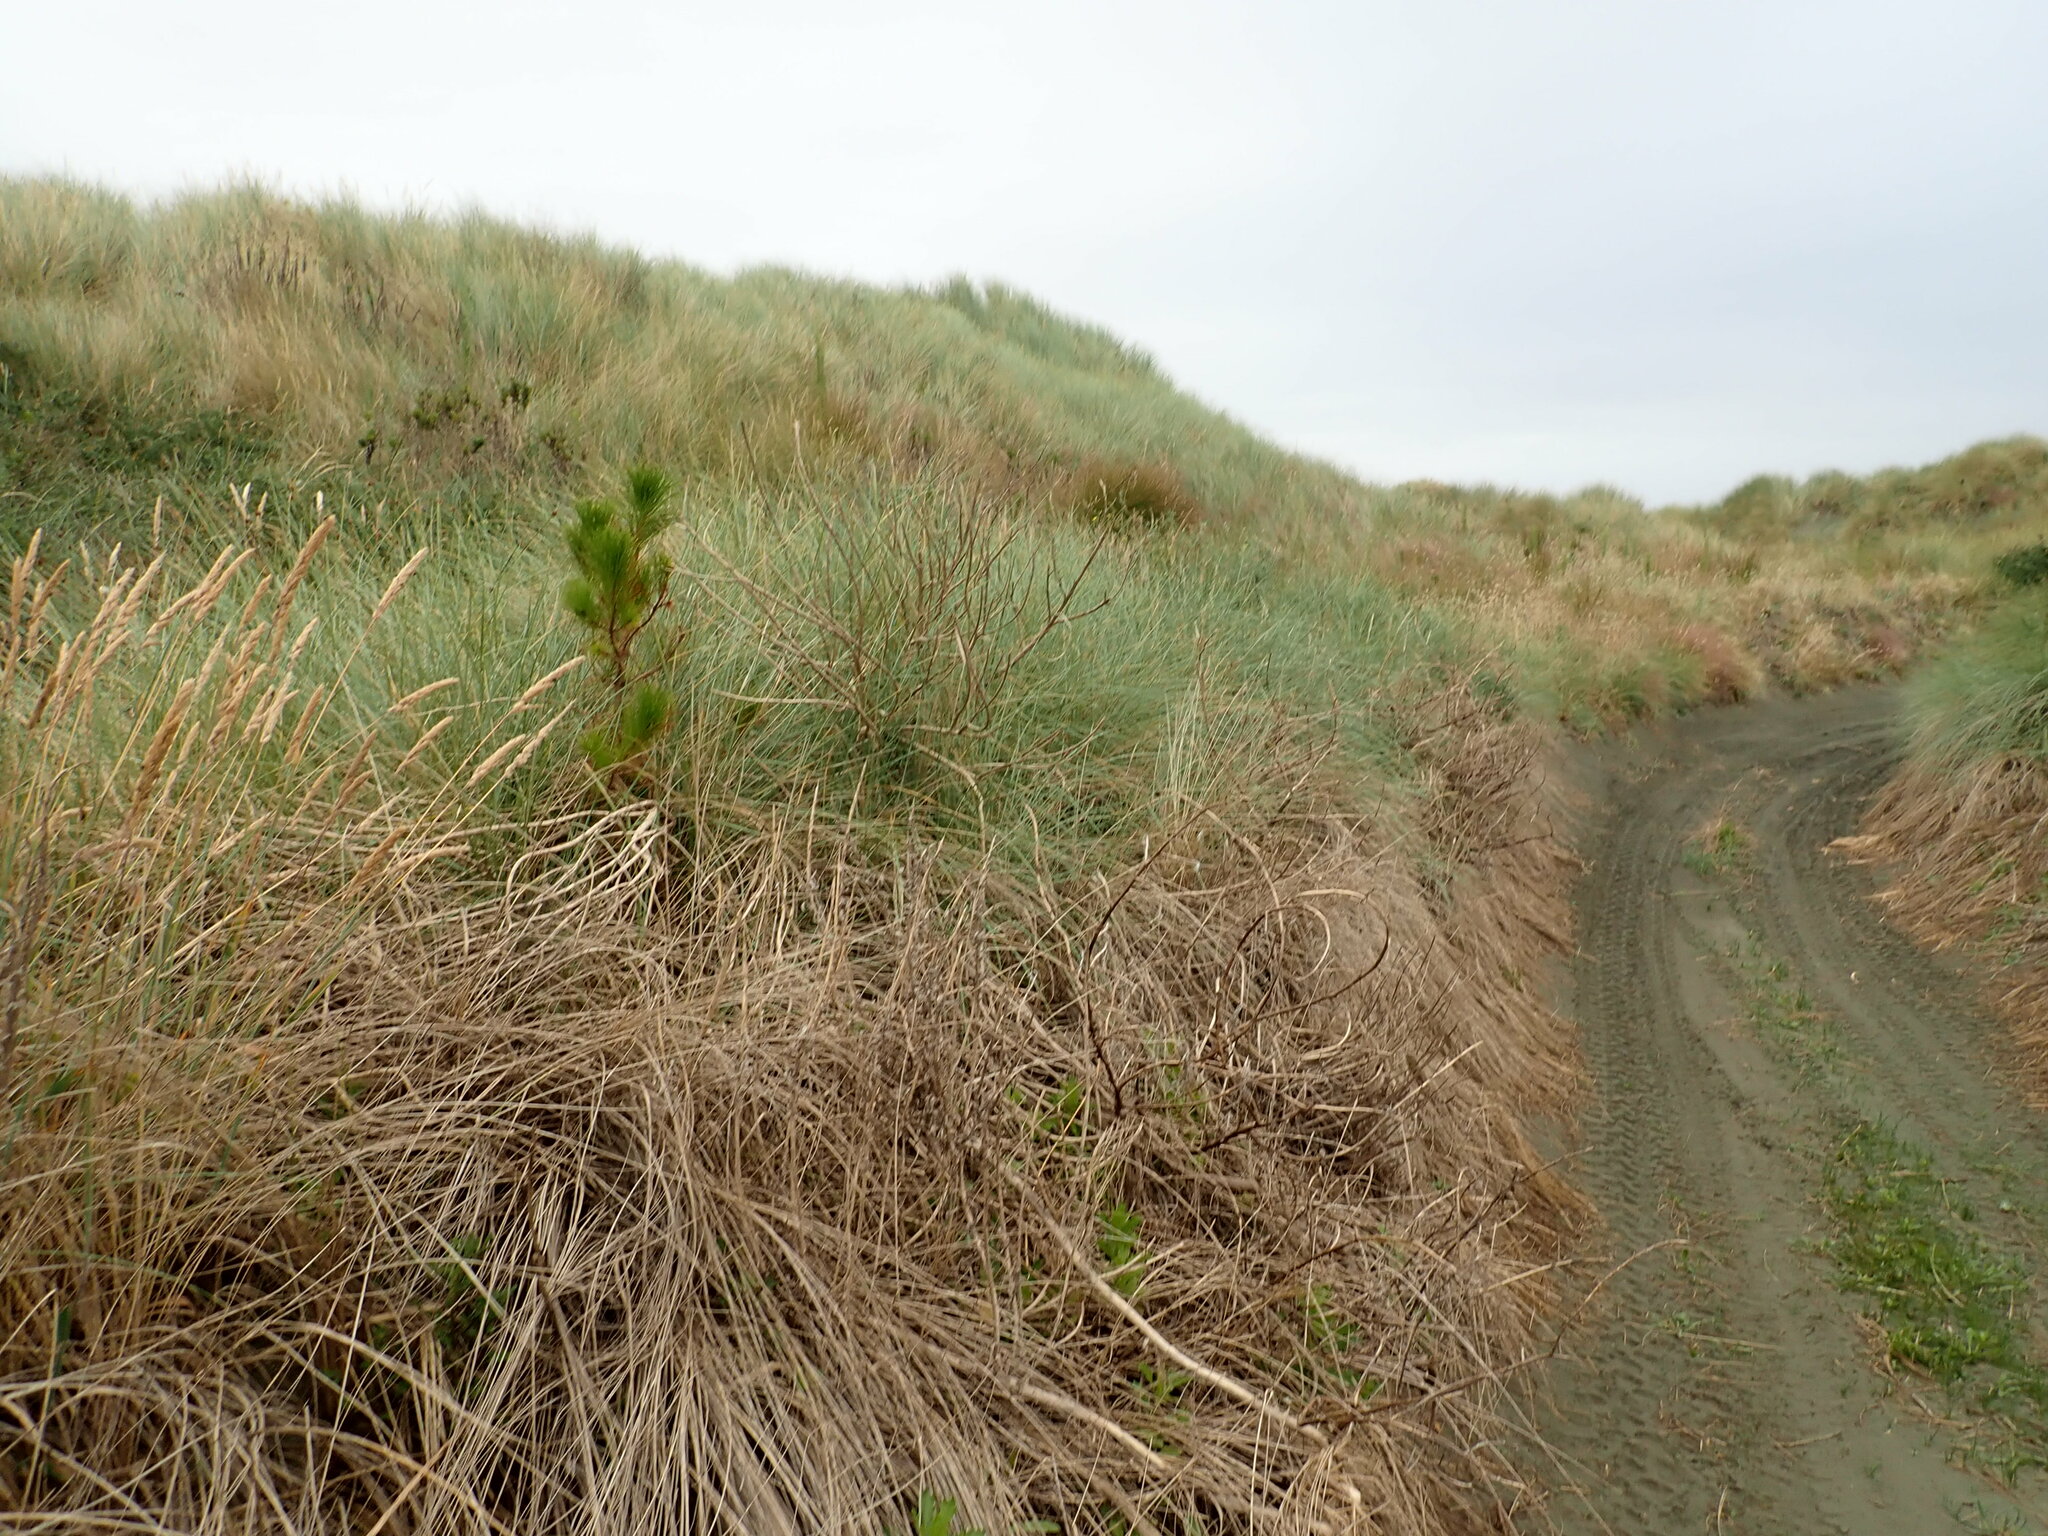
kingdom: Plantae
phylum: Tracheophyta
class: Pinopsida
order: Pinales
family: Pinaceae
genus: Pinus
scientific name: Pinus radiata
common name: Monterey pine
